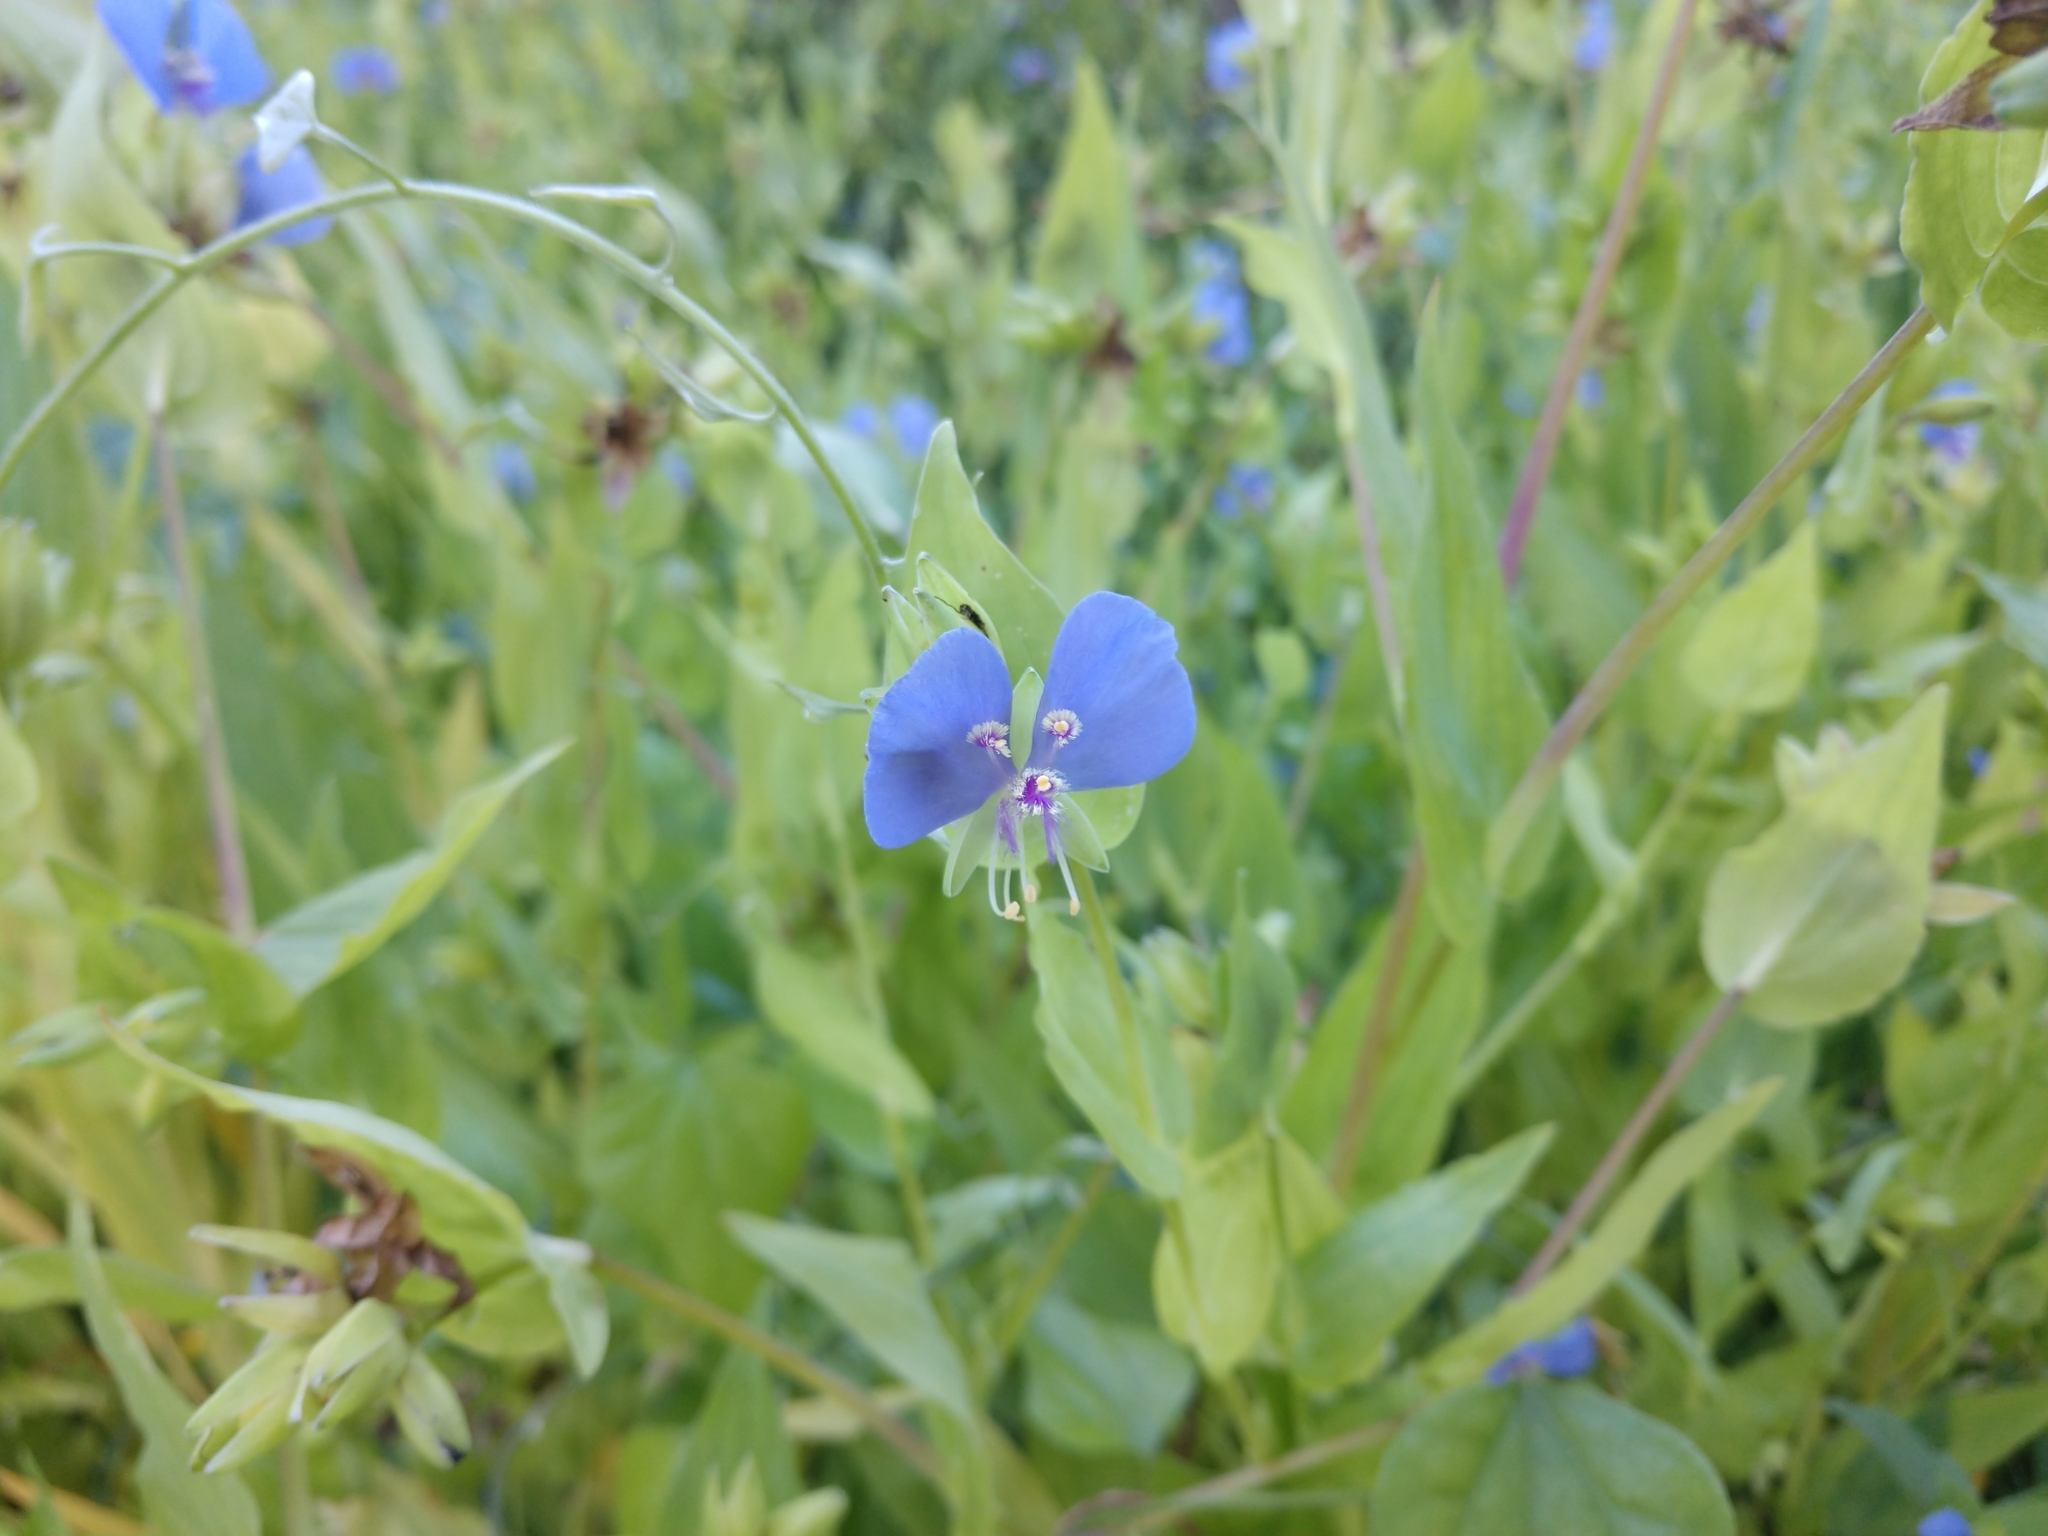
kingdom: Plantae
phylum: Tracheophyta
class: Liliopsida
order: Commelinales
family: Commelinaceae
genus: Tinantia
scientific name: Tinantia anomala
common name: False dayflower
